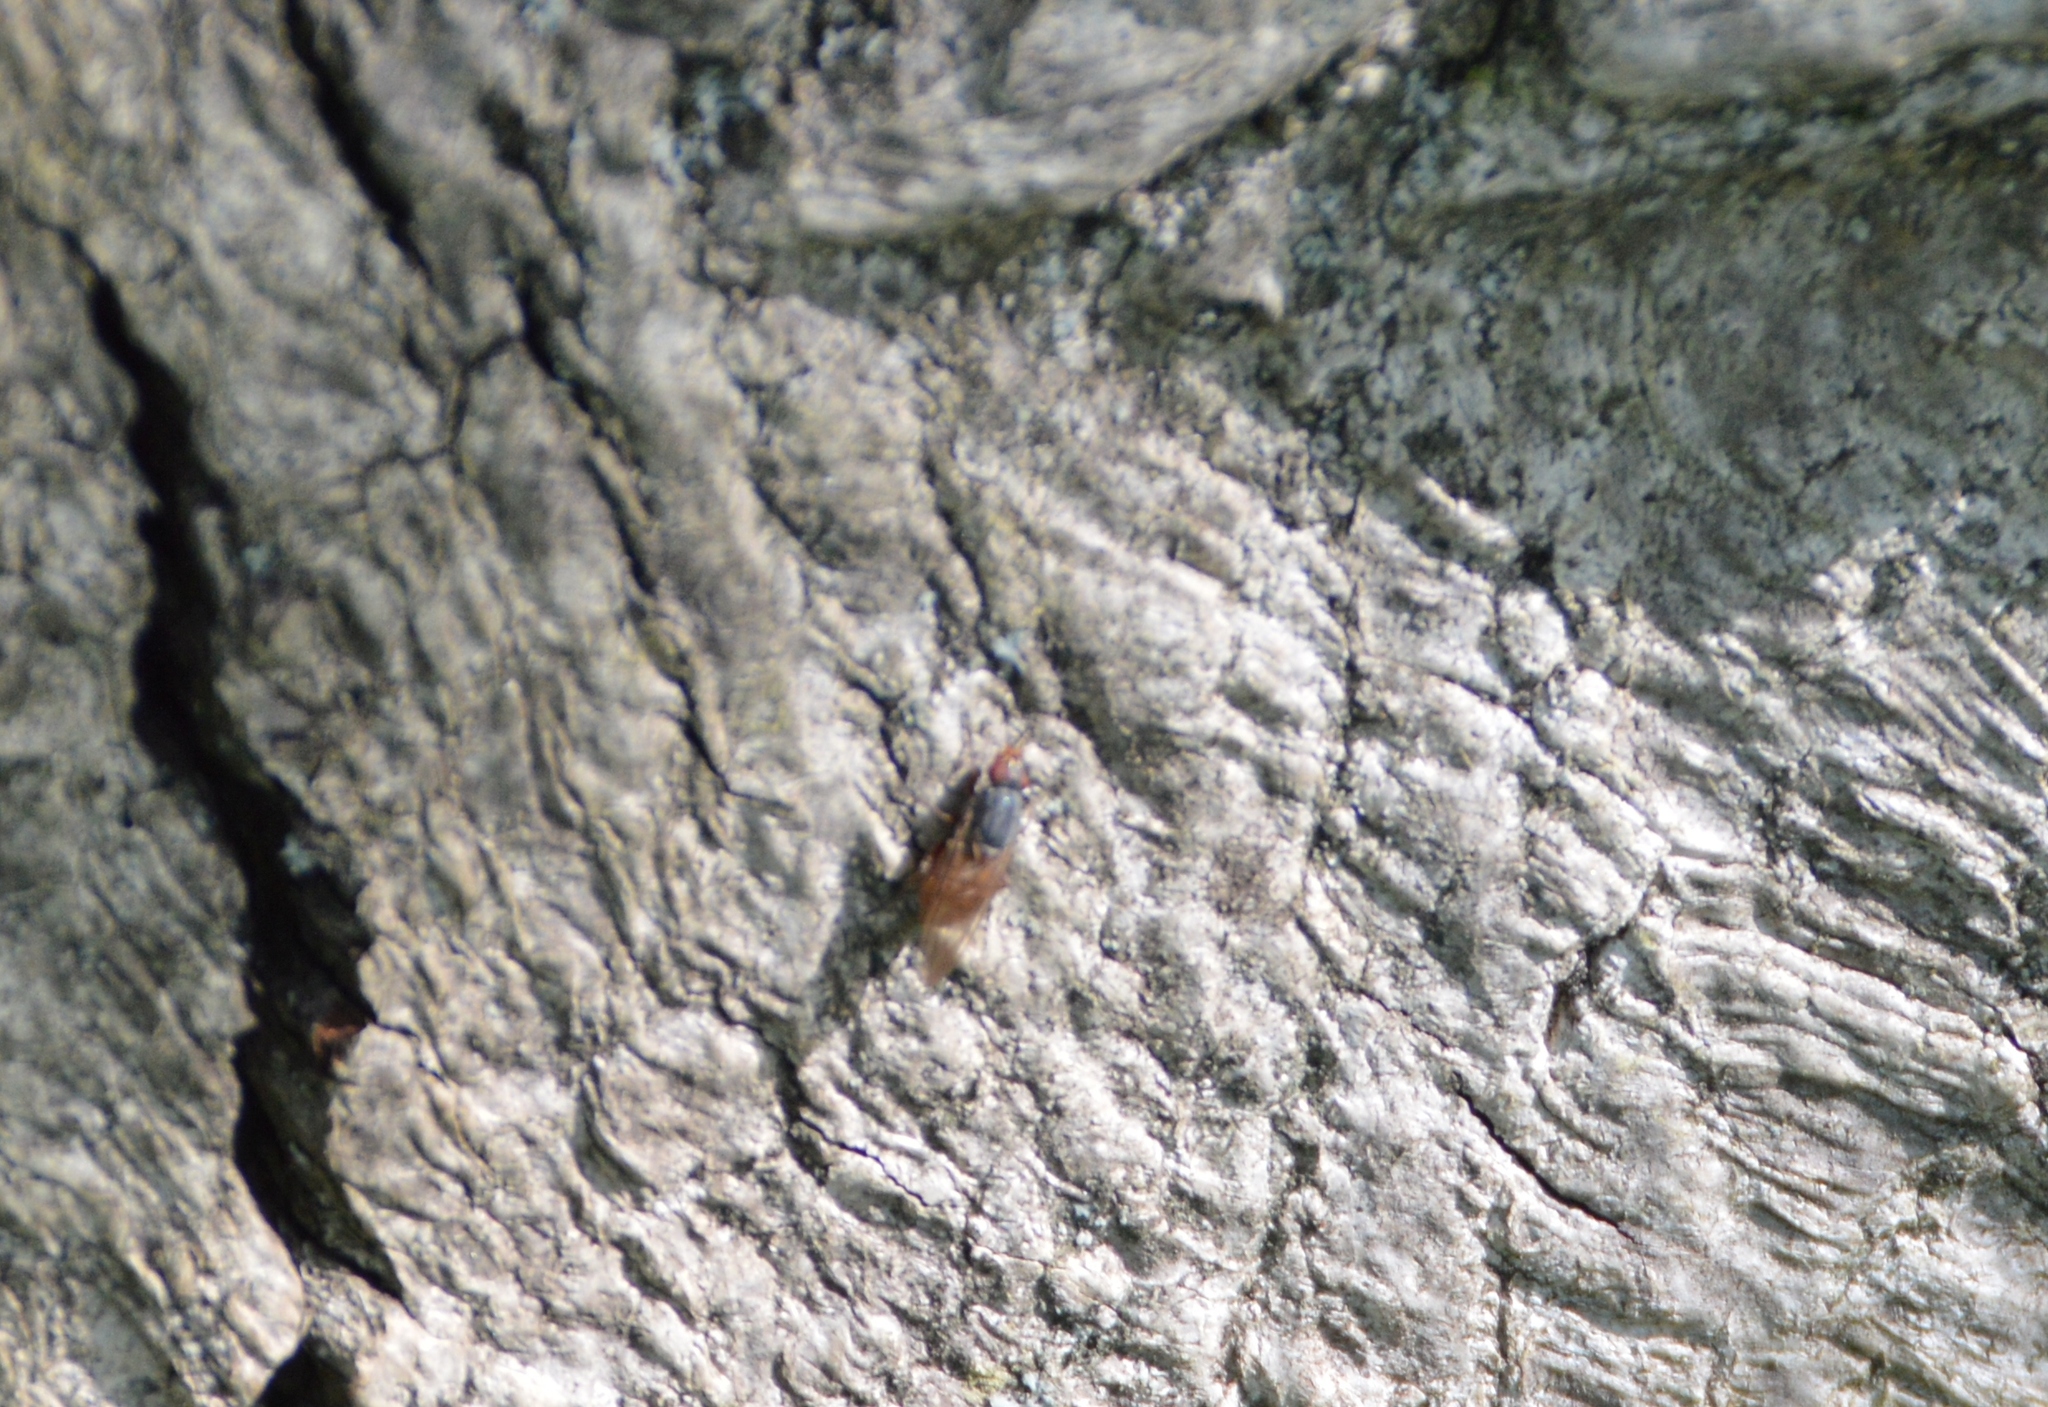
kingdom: Animalia
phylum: Arthropoda
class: Insecta
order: Diptera
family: Syrphidae
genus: Brachyopa
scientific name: Brachyopa
